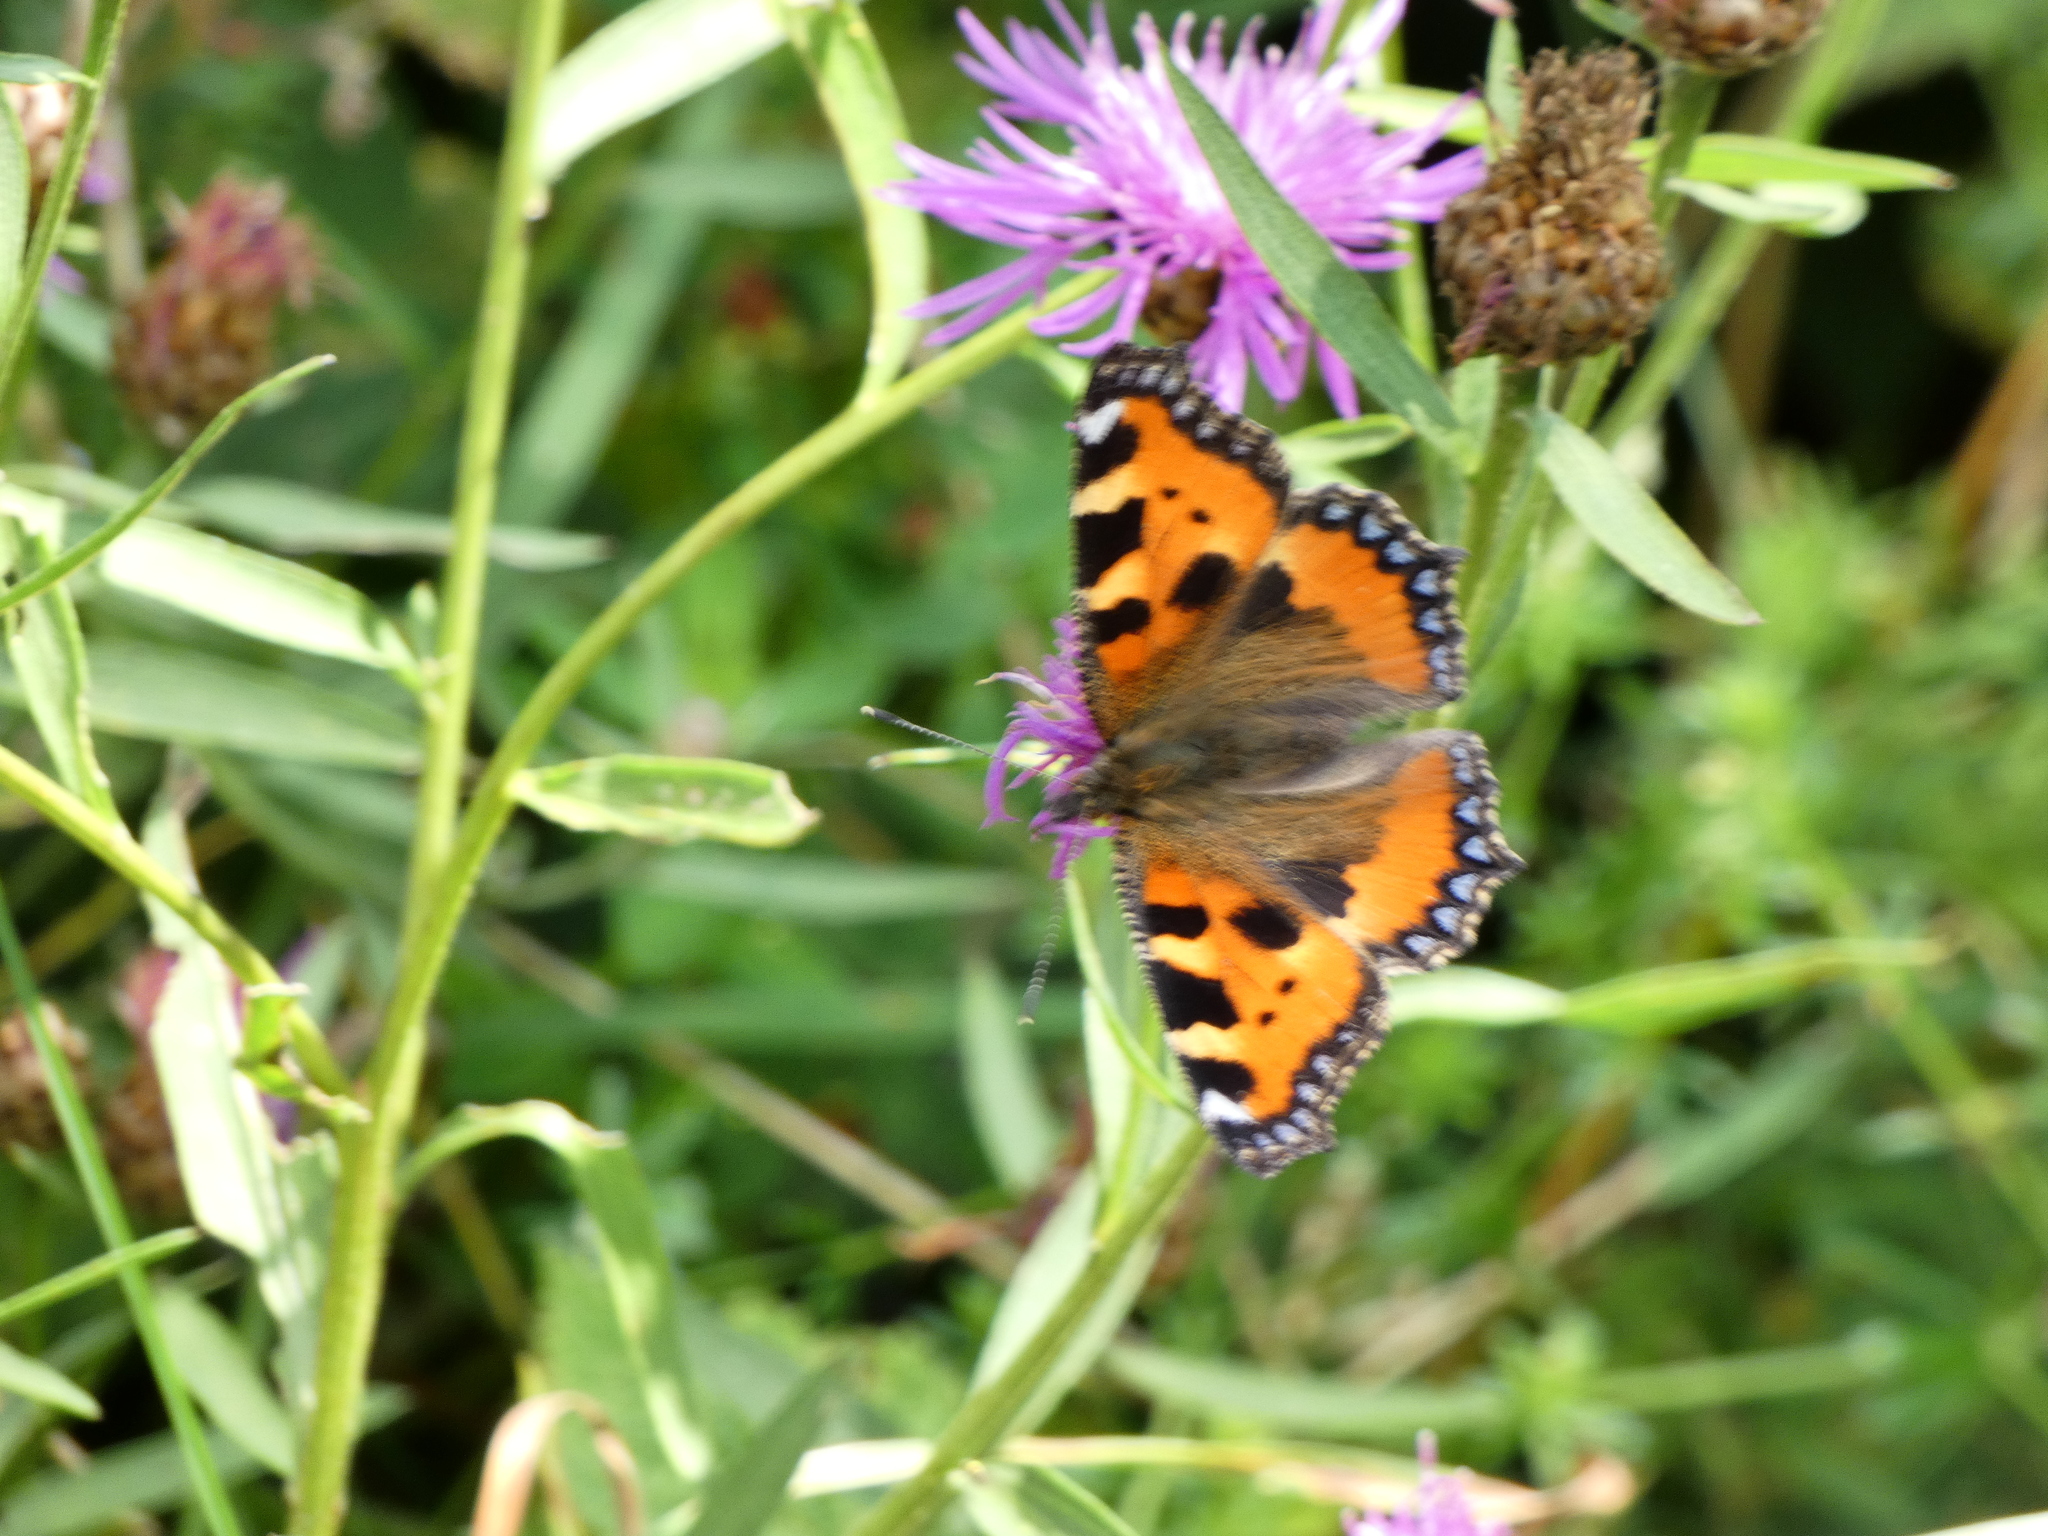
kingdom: Animalia
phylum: Arthropoda
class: Insecta
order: Lepidoptera
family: Nymphalidae
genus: Aglais
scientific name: Aglais urticae
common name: Small tortoiseshell
